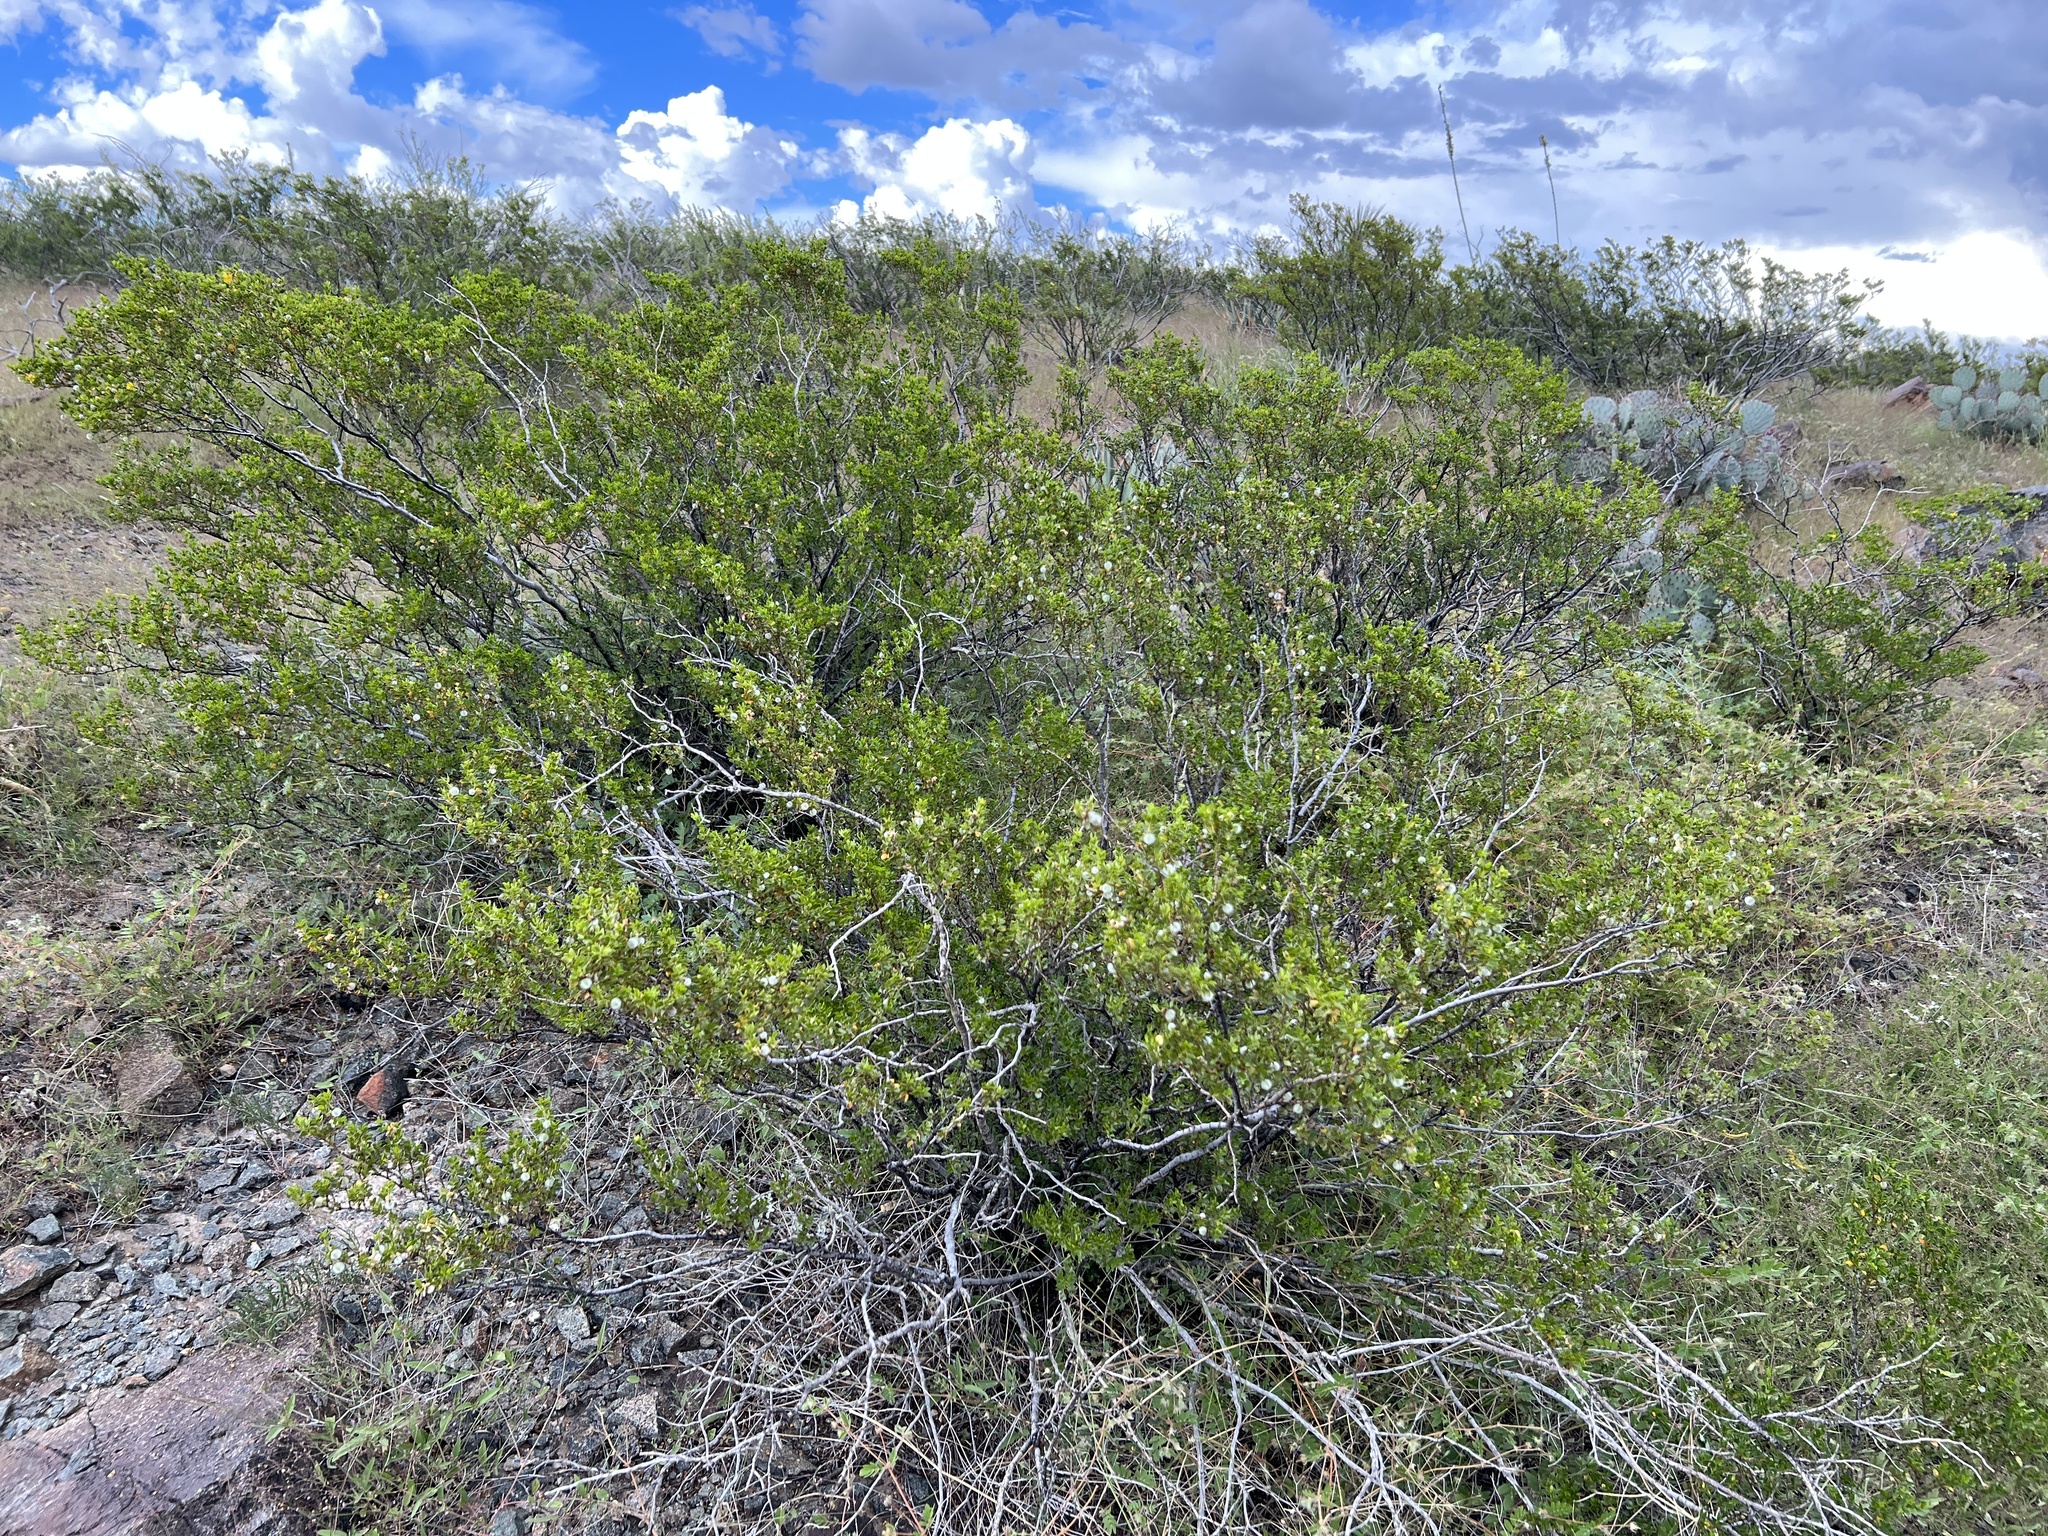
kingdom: Plantae
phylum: Tracheophyta
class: Magnoliopsida
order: Zygophyllales
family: Zygophyllaceae
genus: Larrea
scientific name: Larrea tridentata
